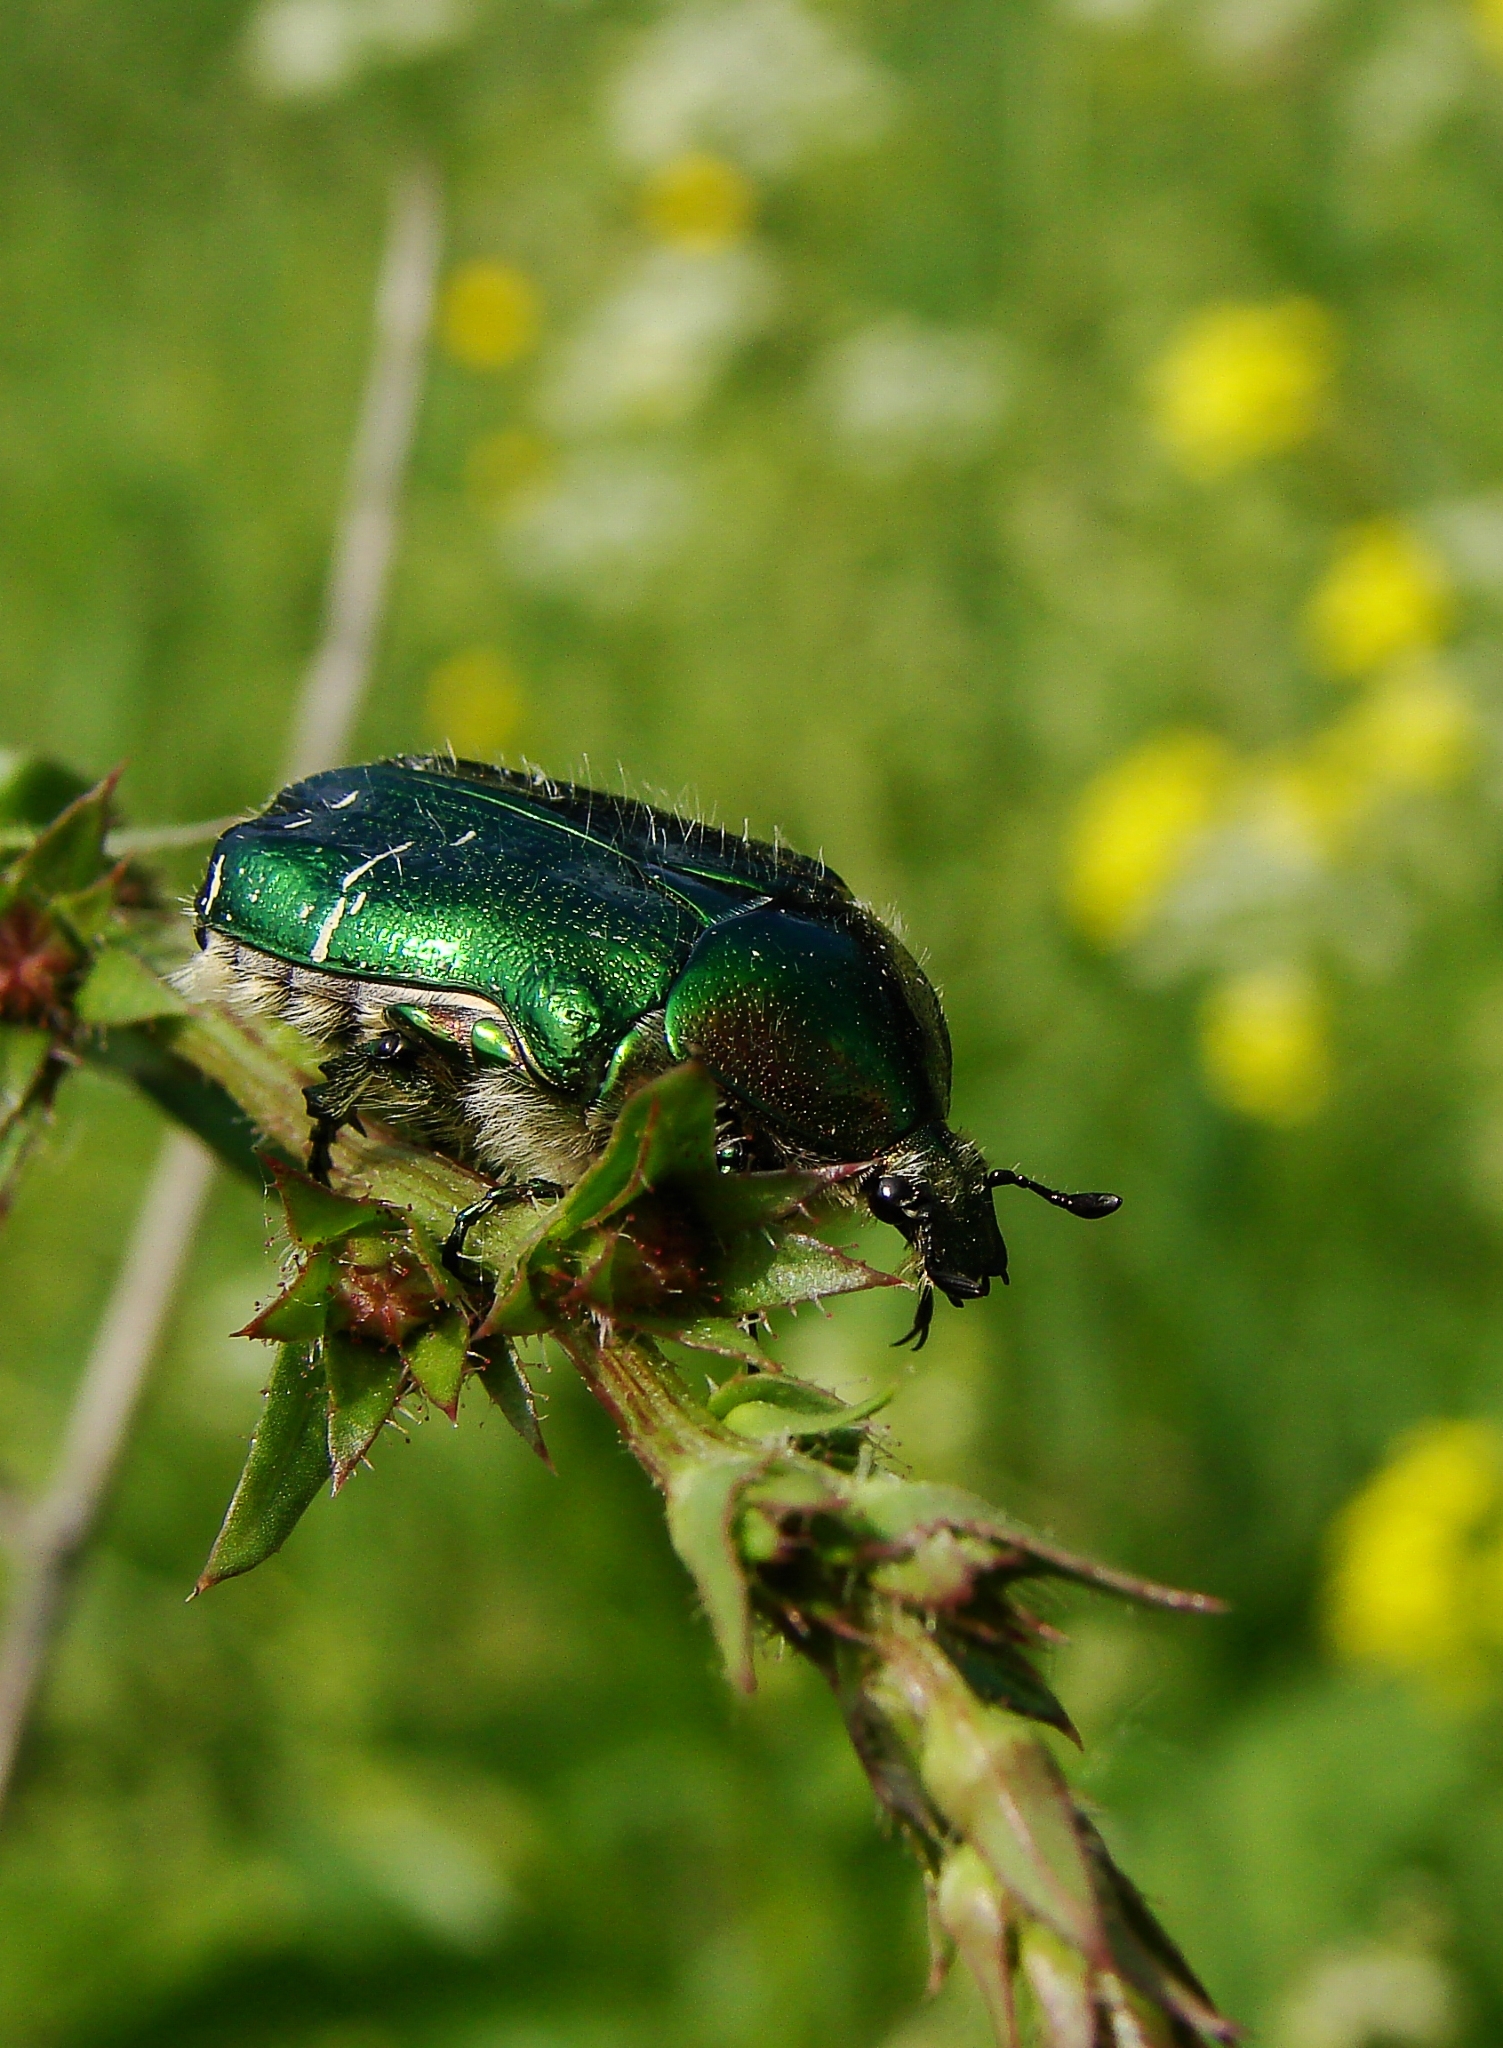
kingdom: Animalia
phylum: Arthropoda
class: Insecta
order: Coleoptera
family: Scarabaeidae
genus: Cetonia
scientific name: Cetonia aurata
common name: Rose chafer
